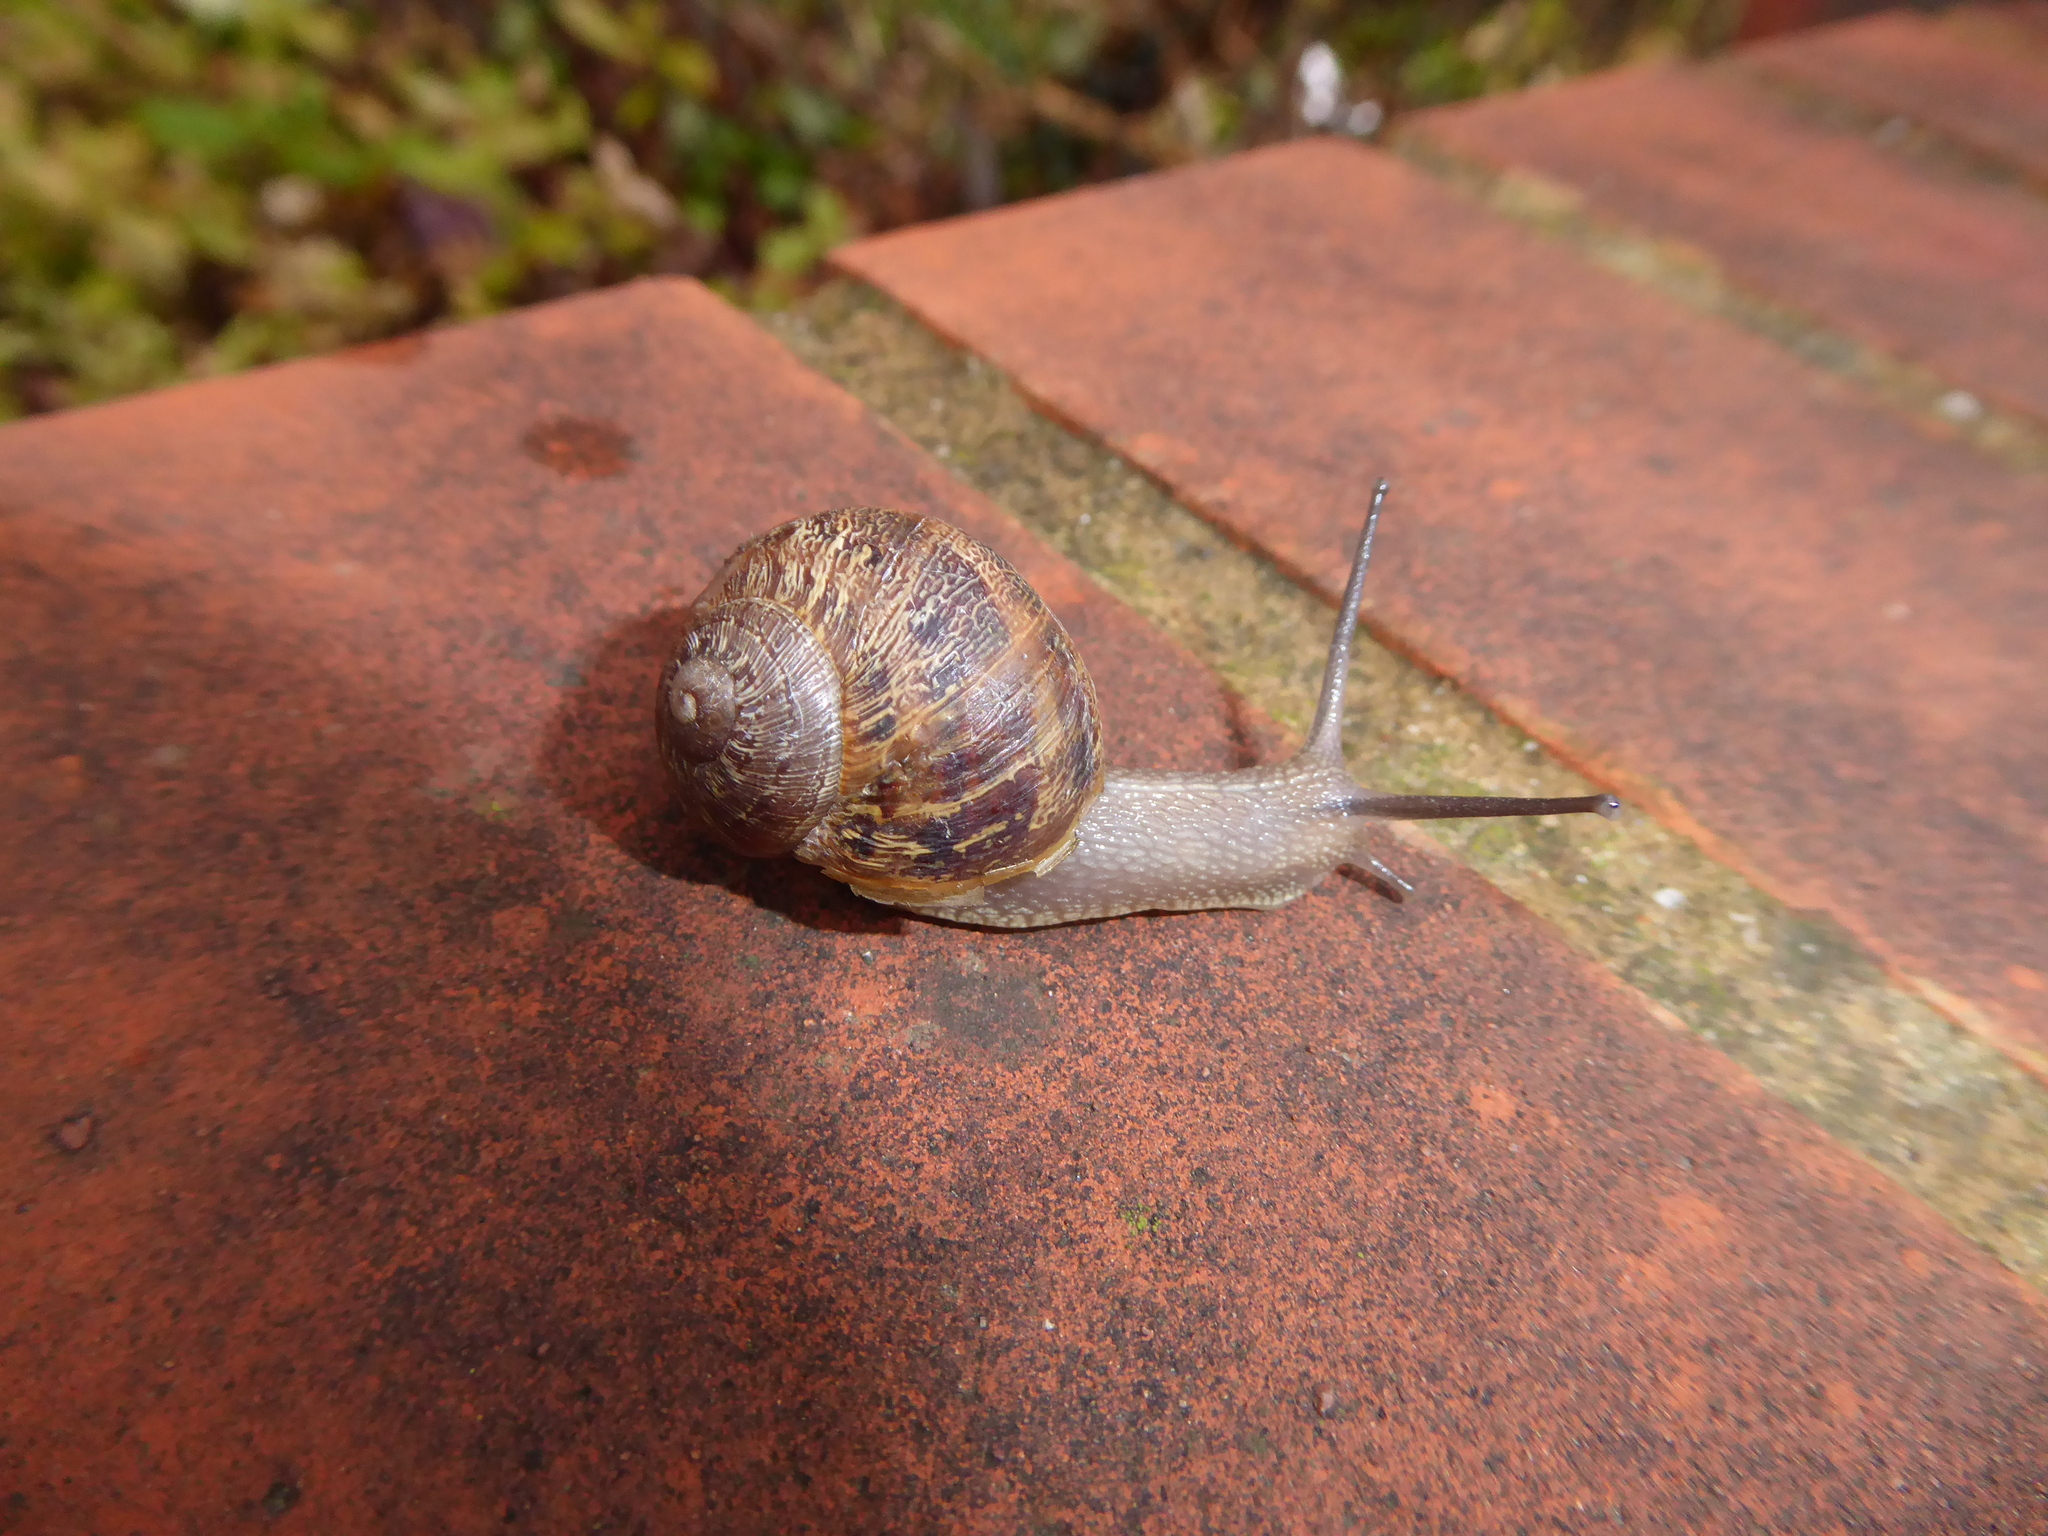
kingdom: Animalia
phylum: Mollusca
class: Gastropoda
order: Stylommatophora
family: Helicidae
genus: Cornu
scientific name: Cornu aspersum
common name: Brown garden snail
